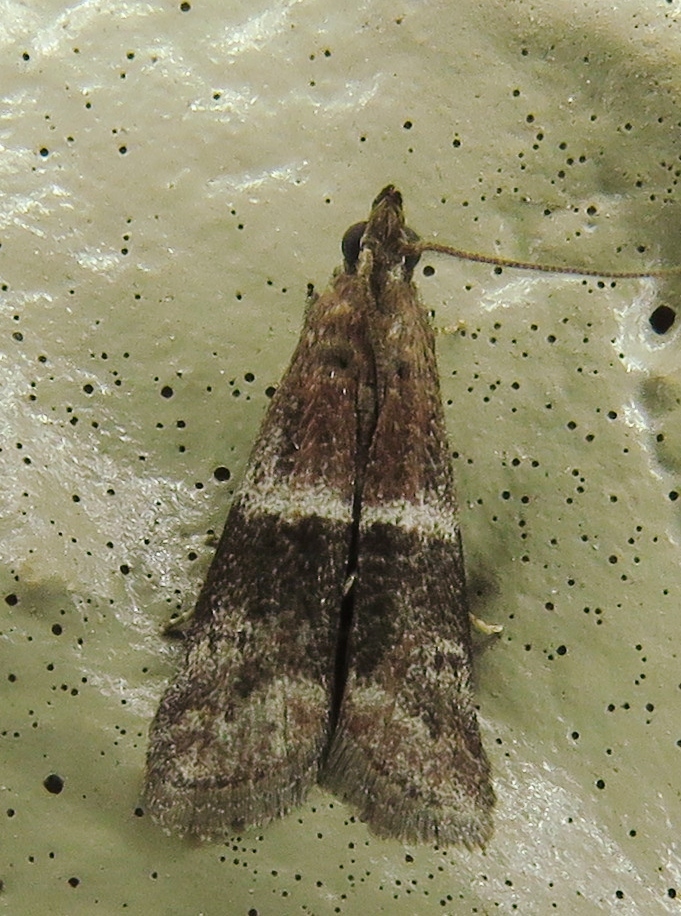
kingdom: Animalia
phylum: Arthropoda
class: Insecta
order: Lepidoptera
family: Pyralidae
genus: Moodna
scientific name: Moodna ostrinella
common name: Darker moodna moth
